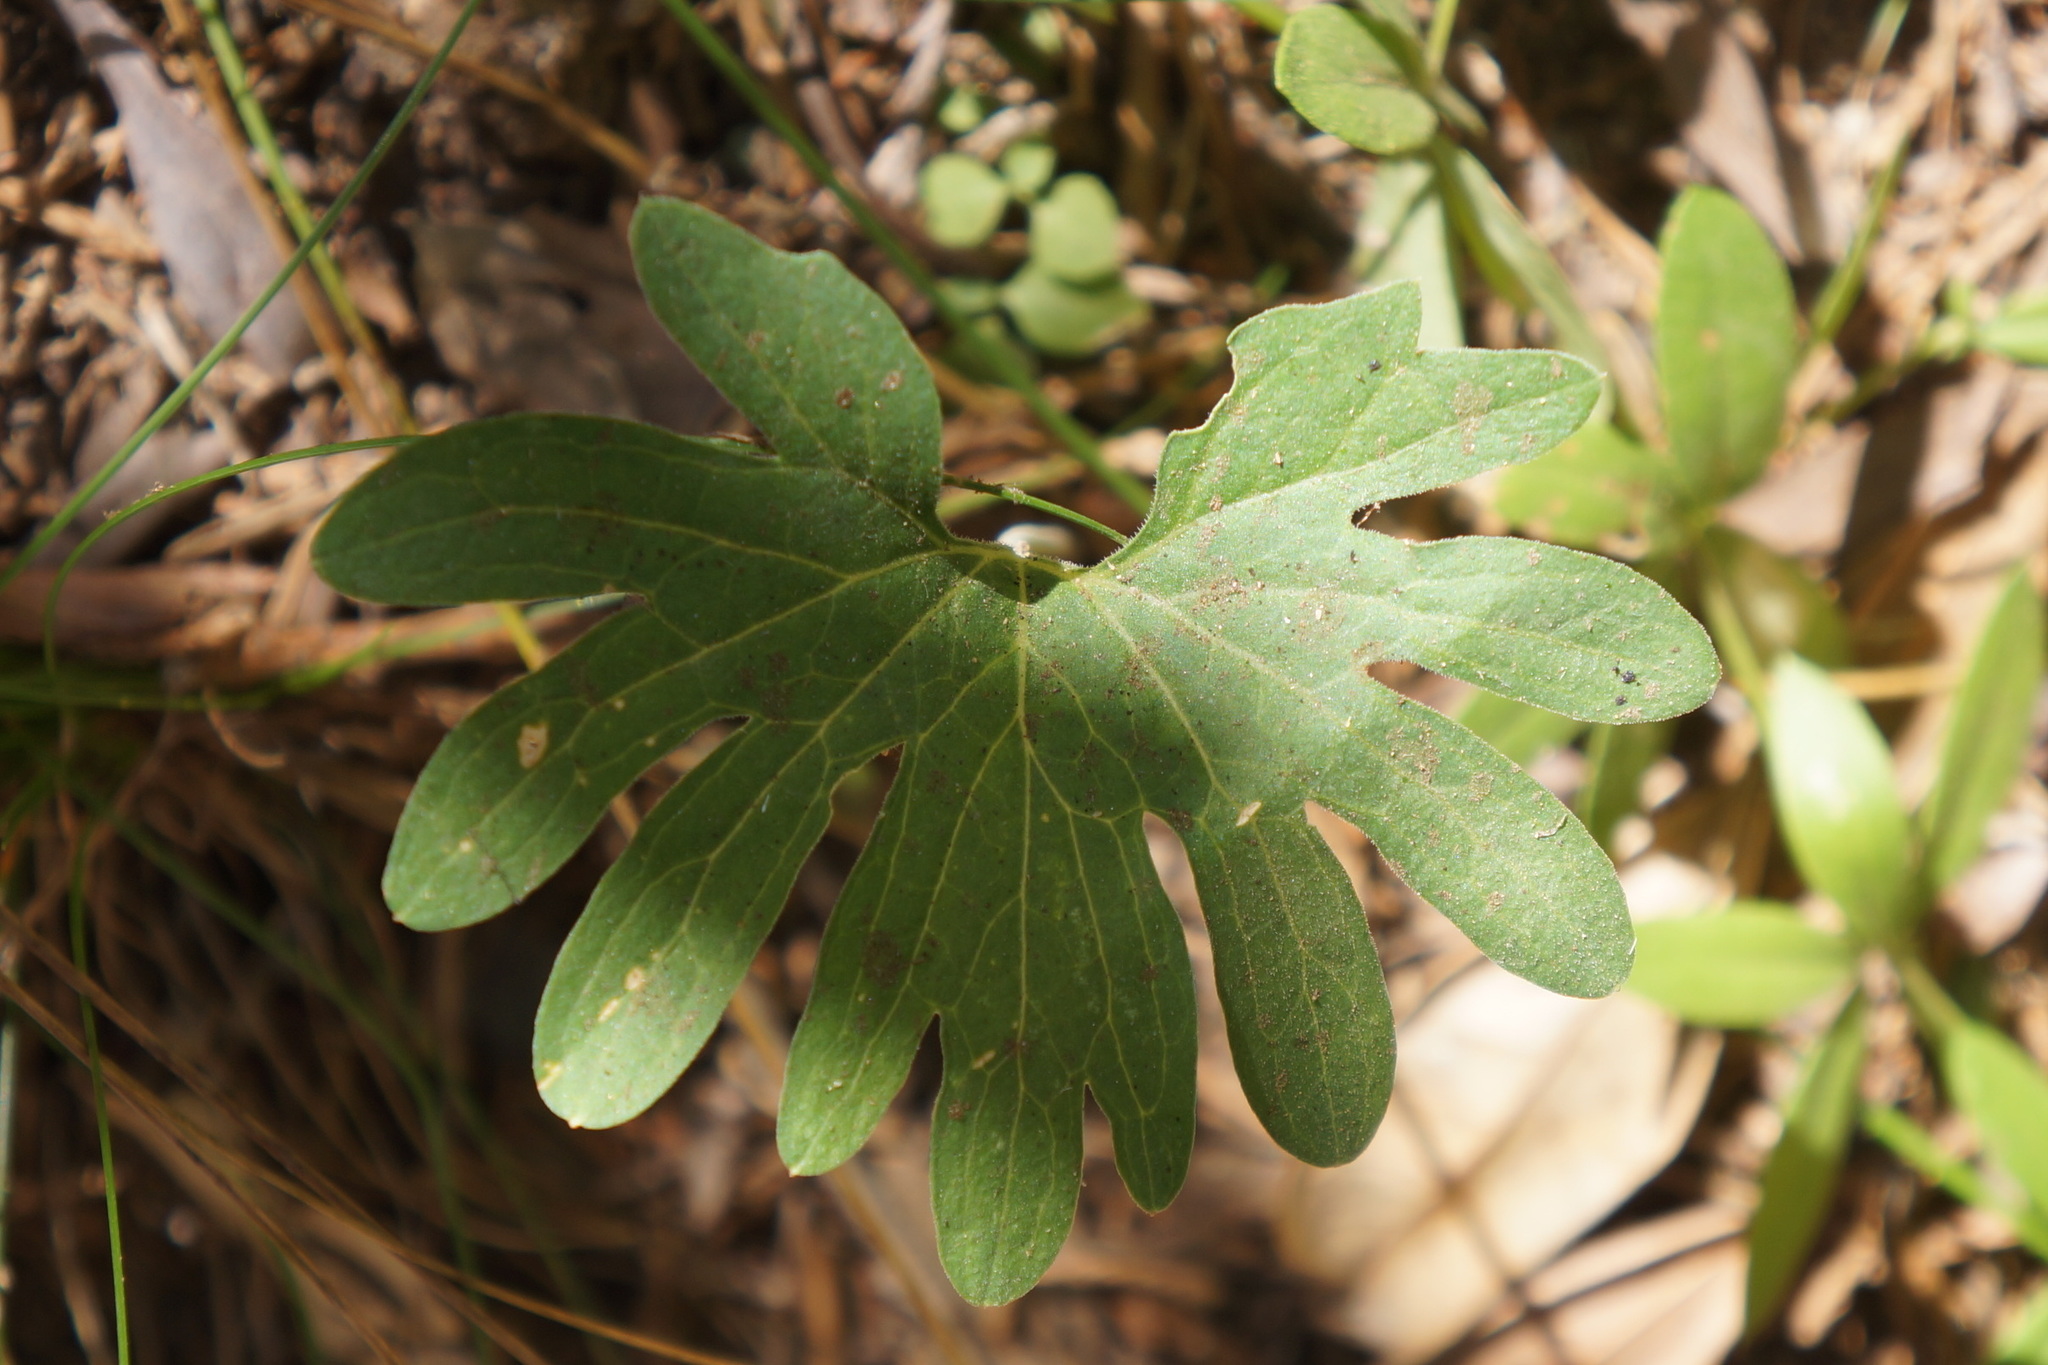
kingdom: Plantae
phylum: Tracheophyta
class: Magnoliopsida
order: Malpighiales
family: Violaceae
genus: Viola
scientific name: Viola lobata
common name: Pine violet
